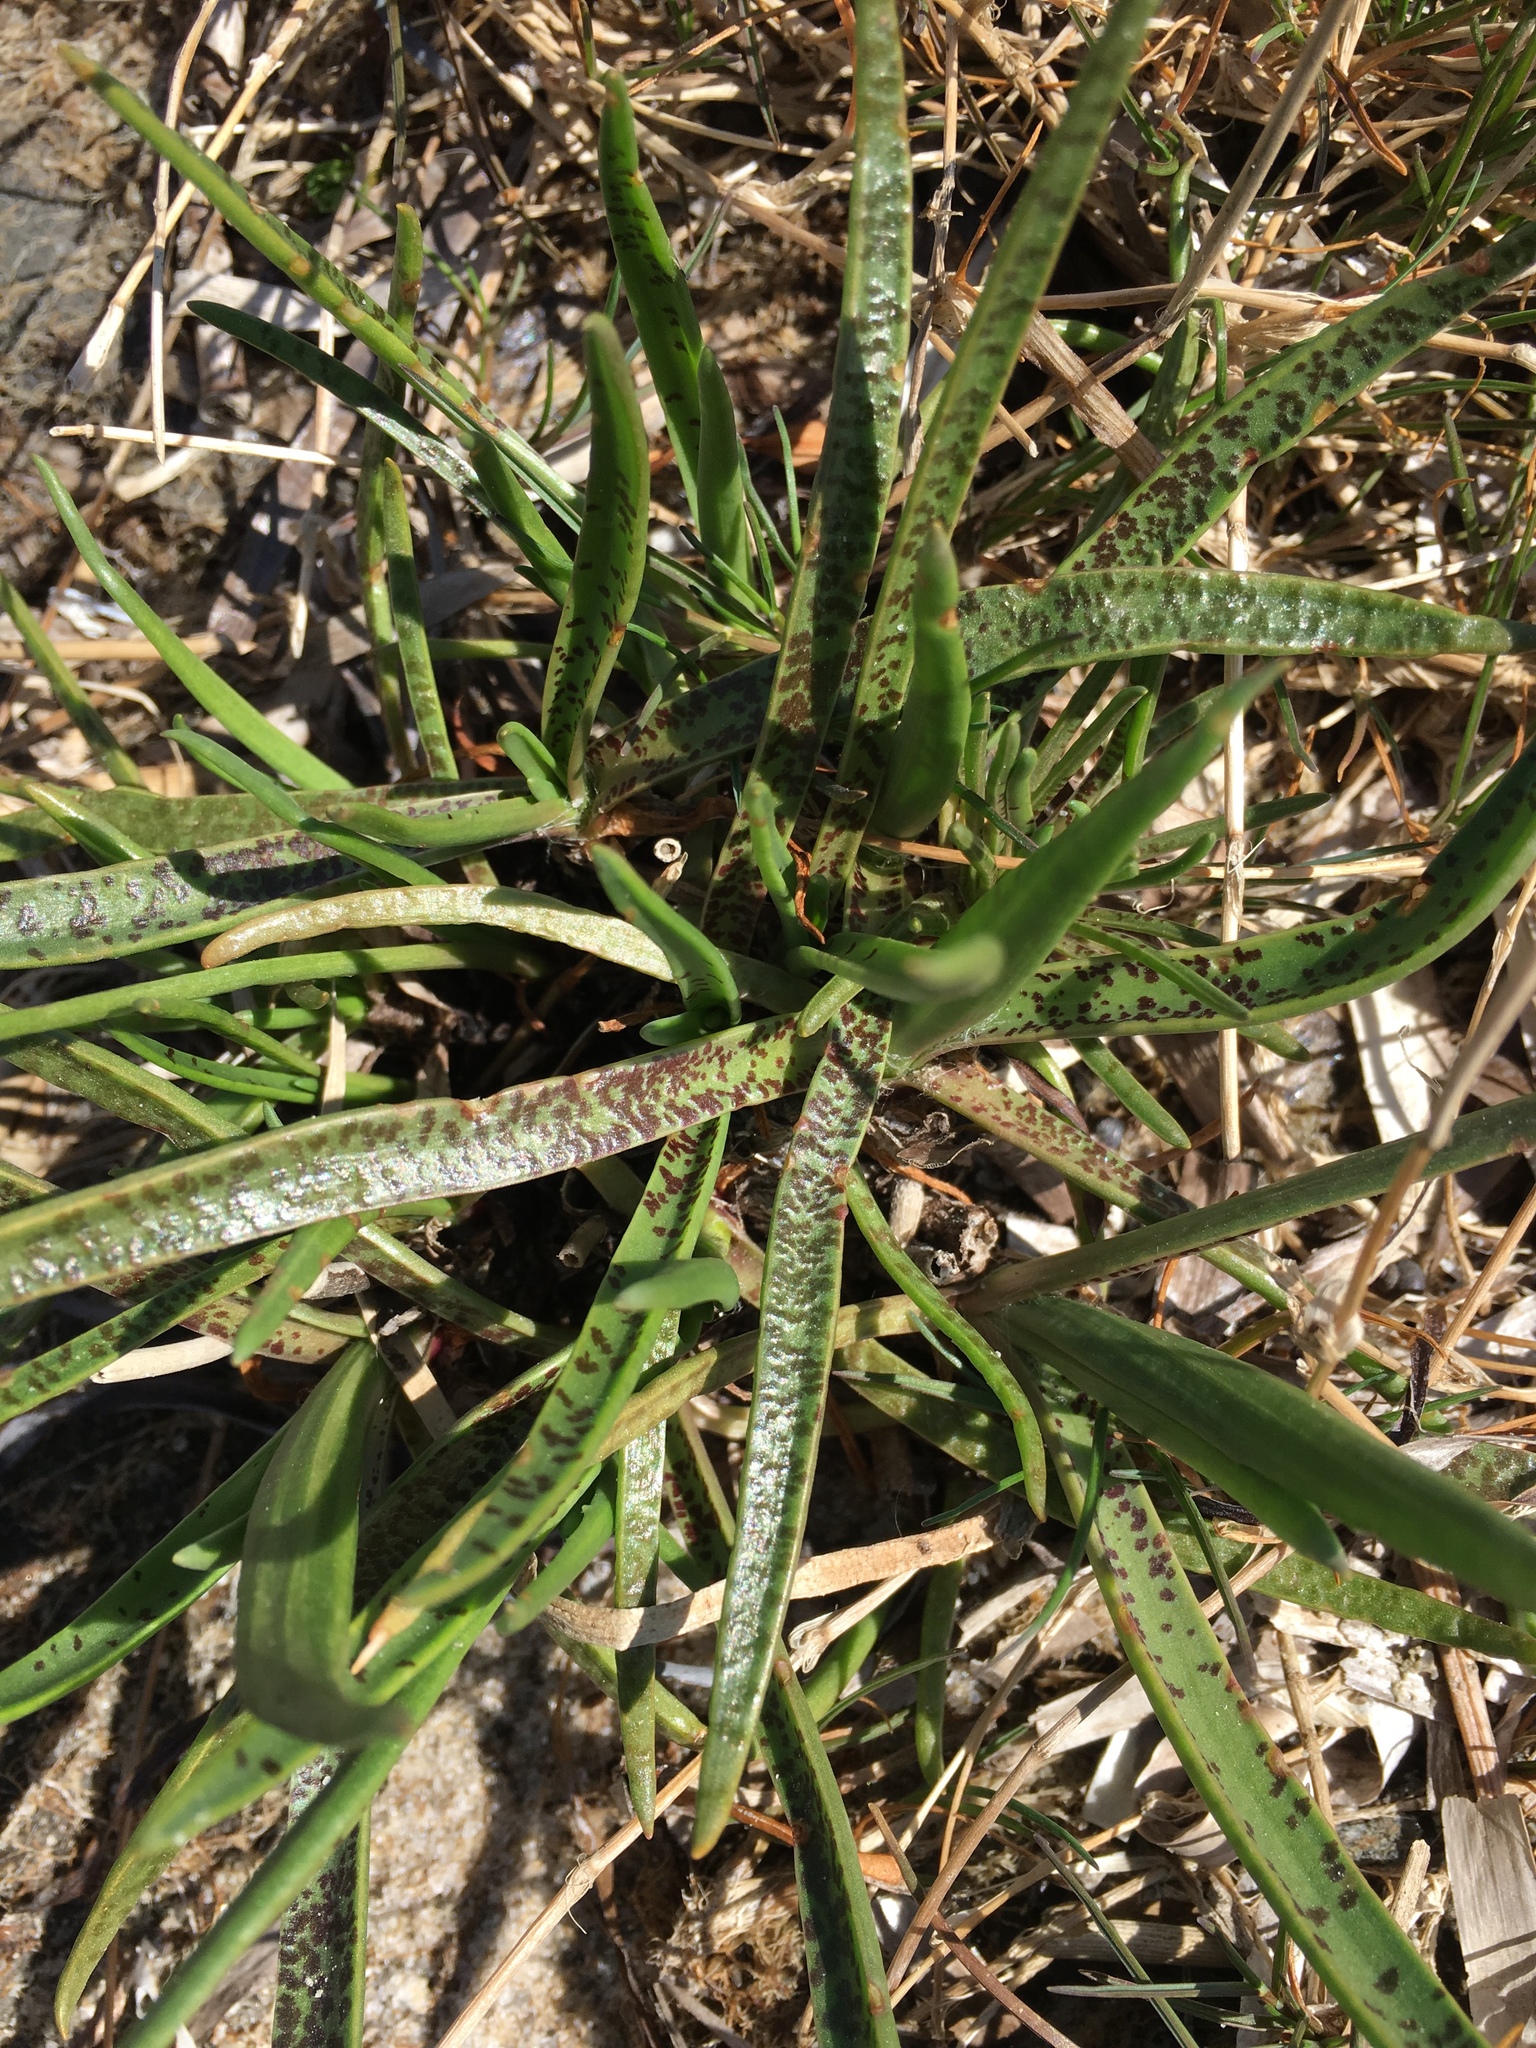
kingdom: Plantae
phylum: Tracheophyta
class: Magnoliopsida
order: Lamiales
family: Plantaginaceae
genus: Plantago
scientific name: Plantago maritima
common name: Sea plantain
